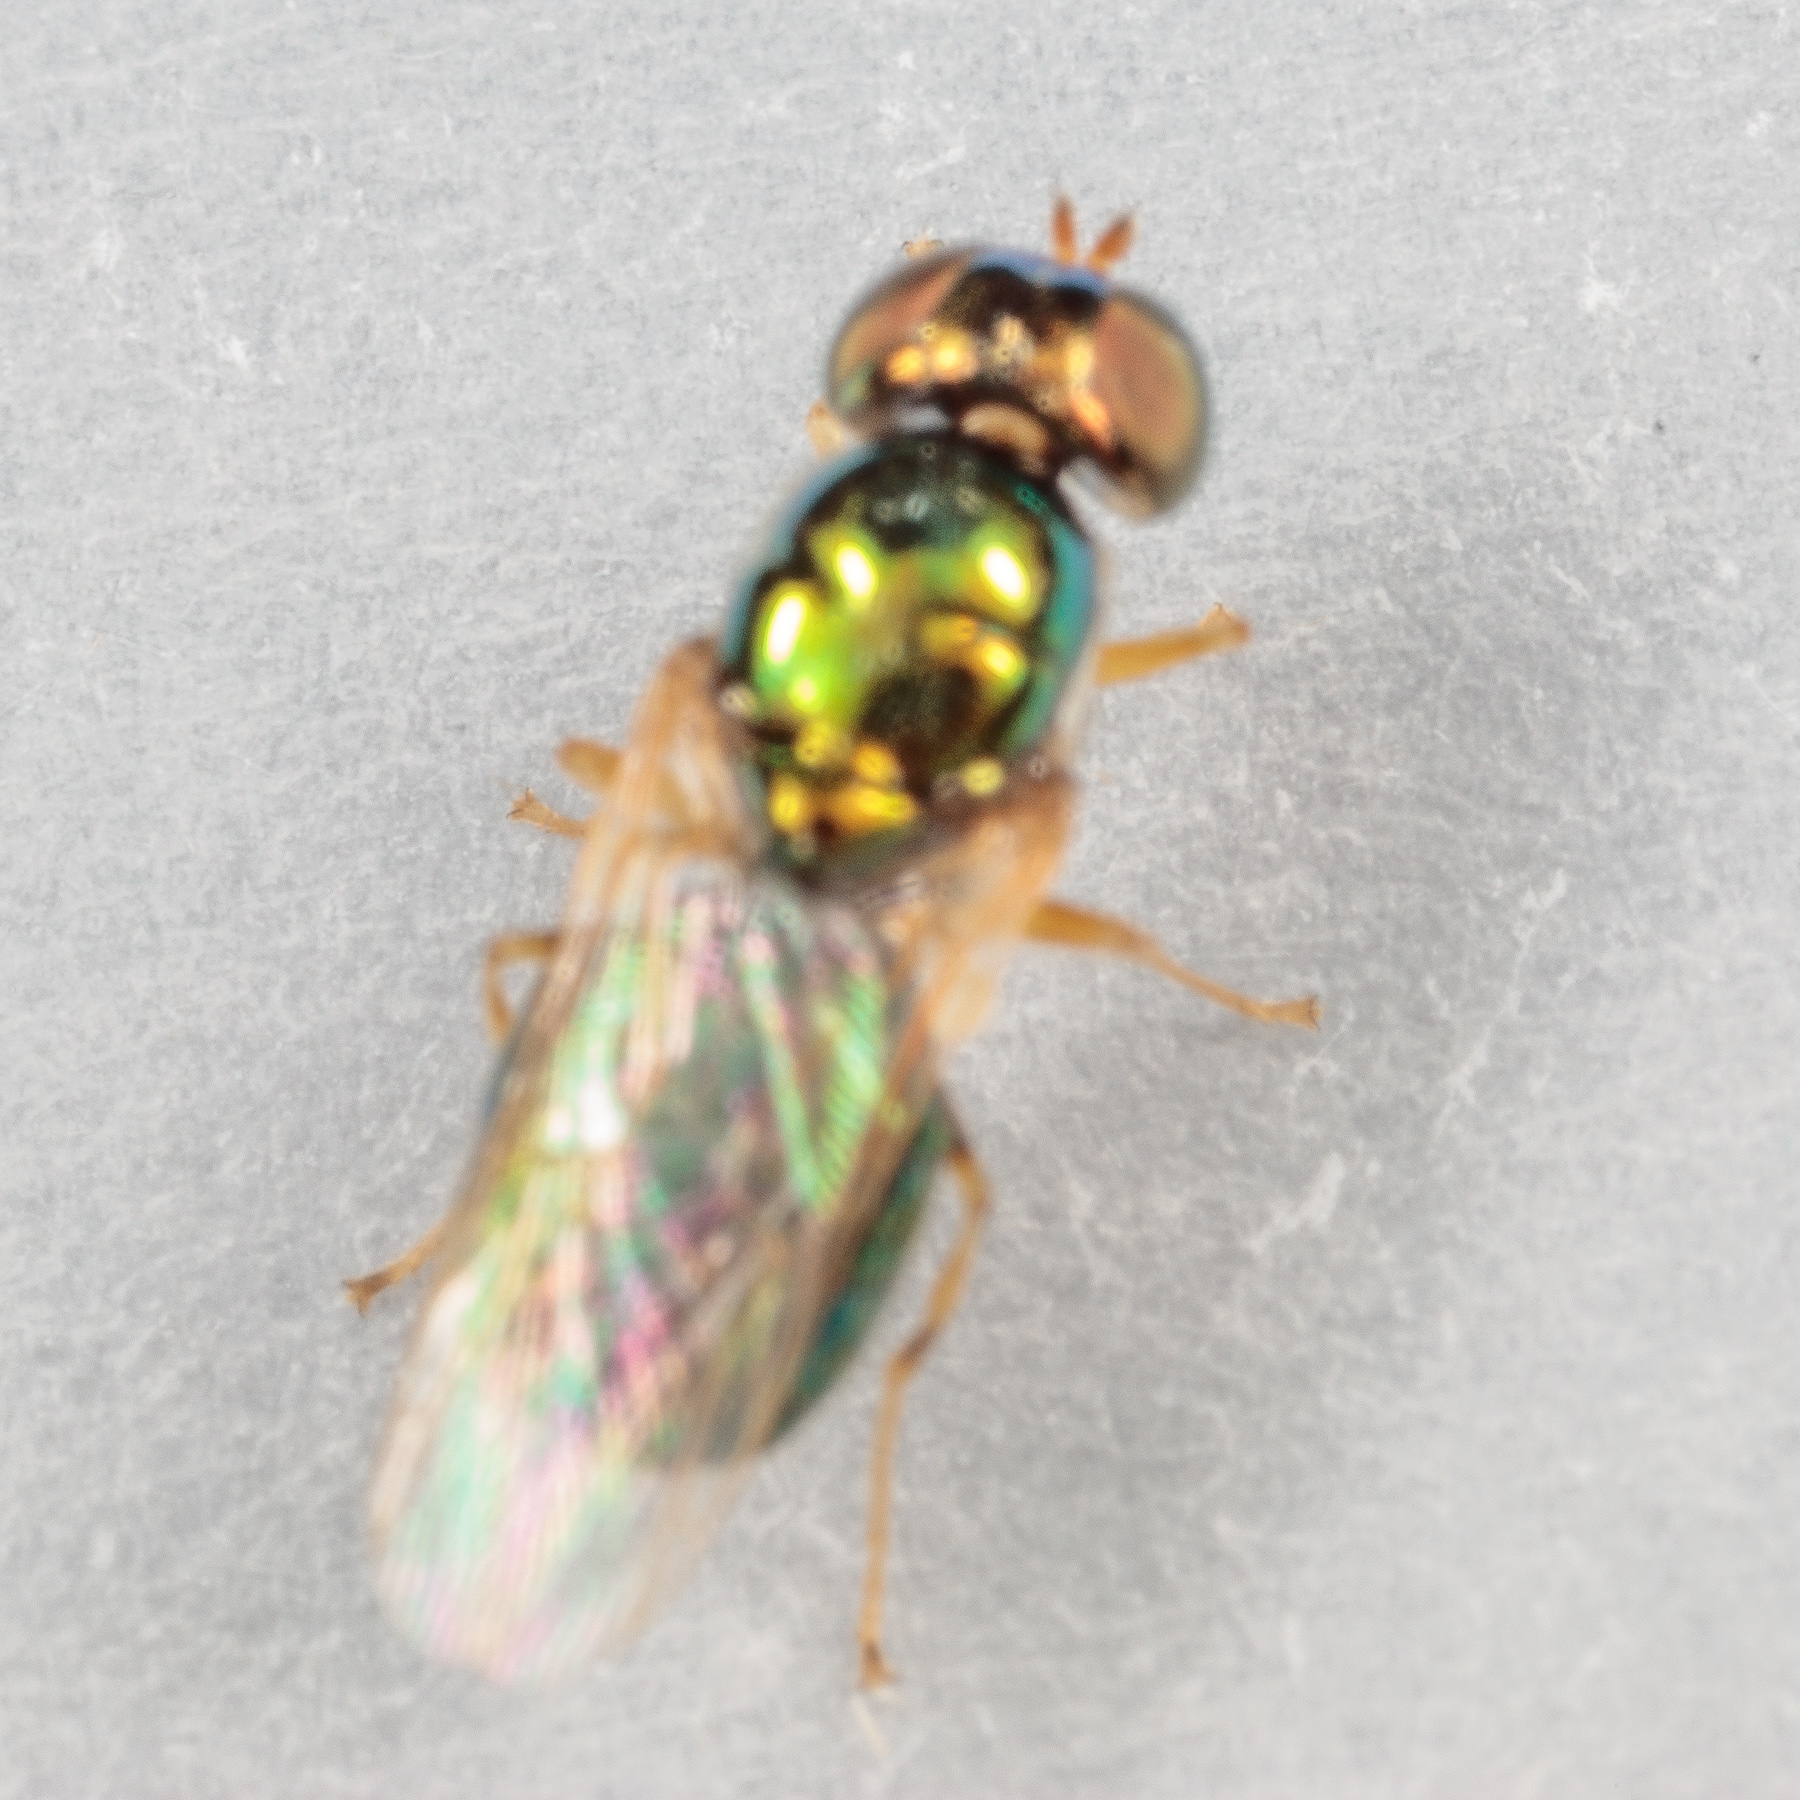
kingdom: Animalia
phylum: Arthropoda
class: Insecta
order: Diptera
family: Stratiomyidae
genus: Microchrysa
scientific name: Microchrysa flaviventris
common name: Soldier fly
